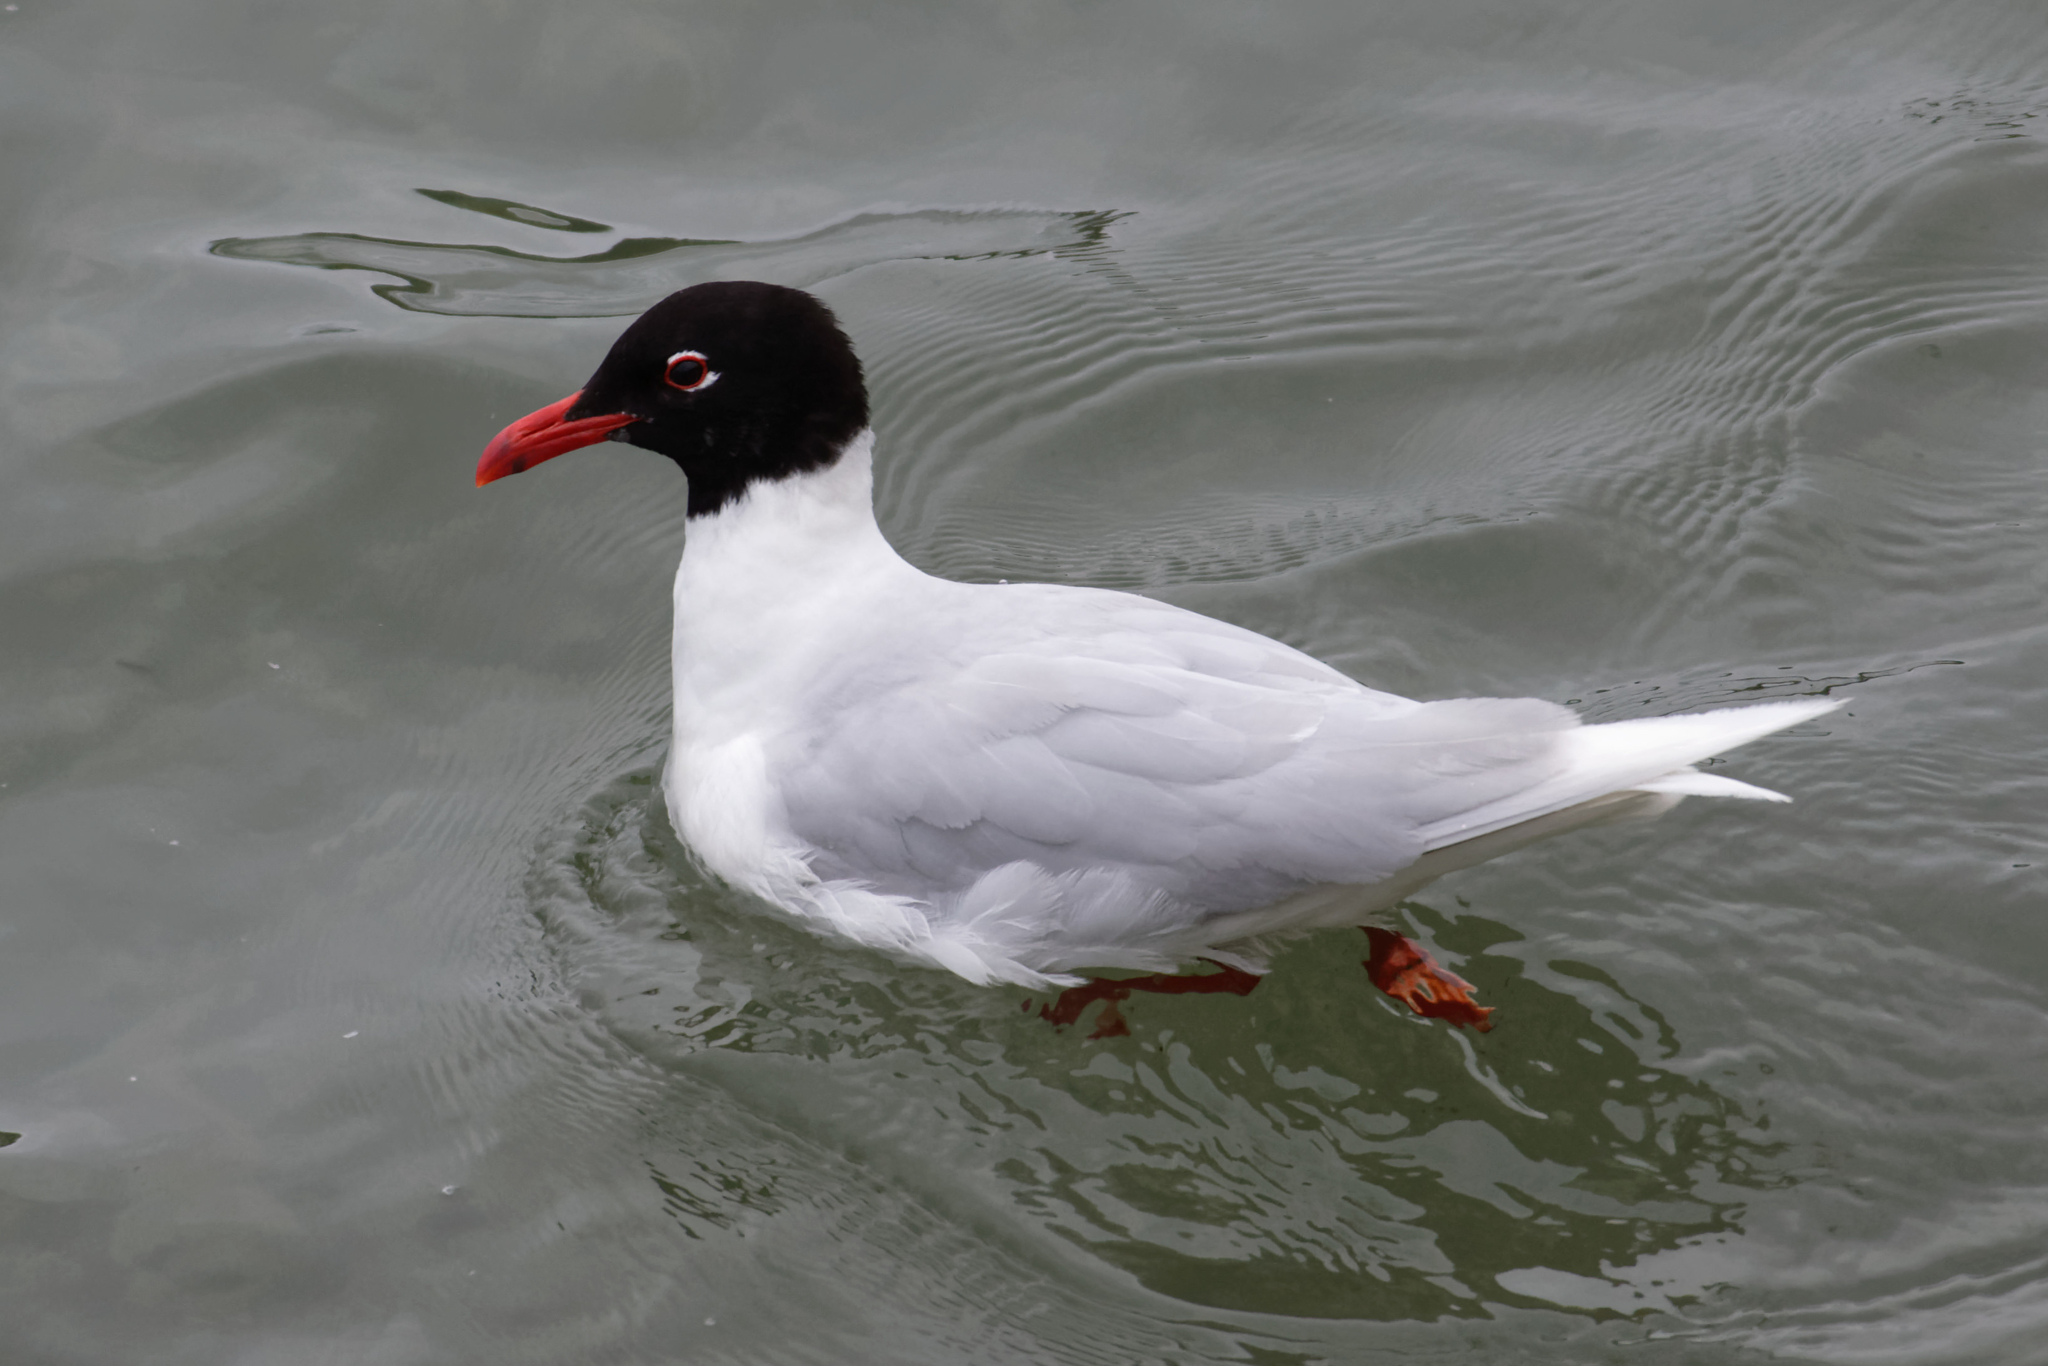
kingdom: Animalia
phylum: Chordata
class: Aves
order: Charadriiformes
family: Laridae
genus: Ichthyaetus
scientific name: Ichthyaetus melanocephalus
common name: Mediterranean gull
